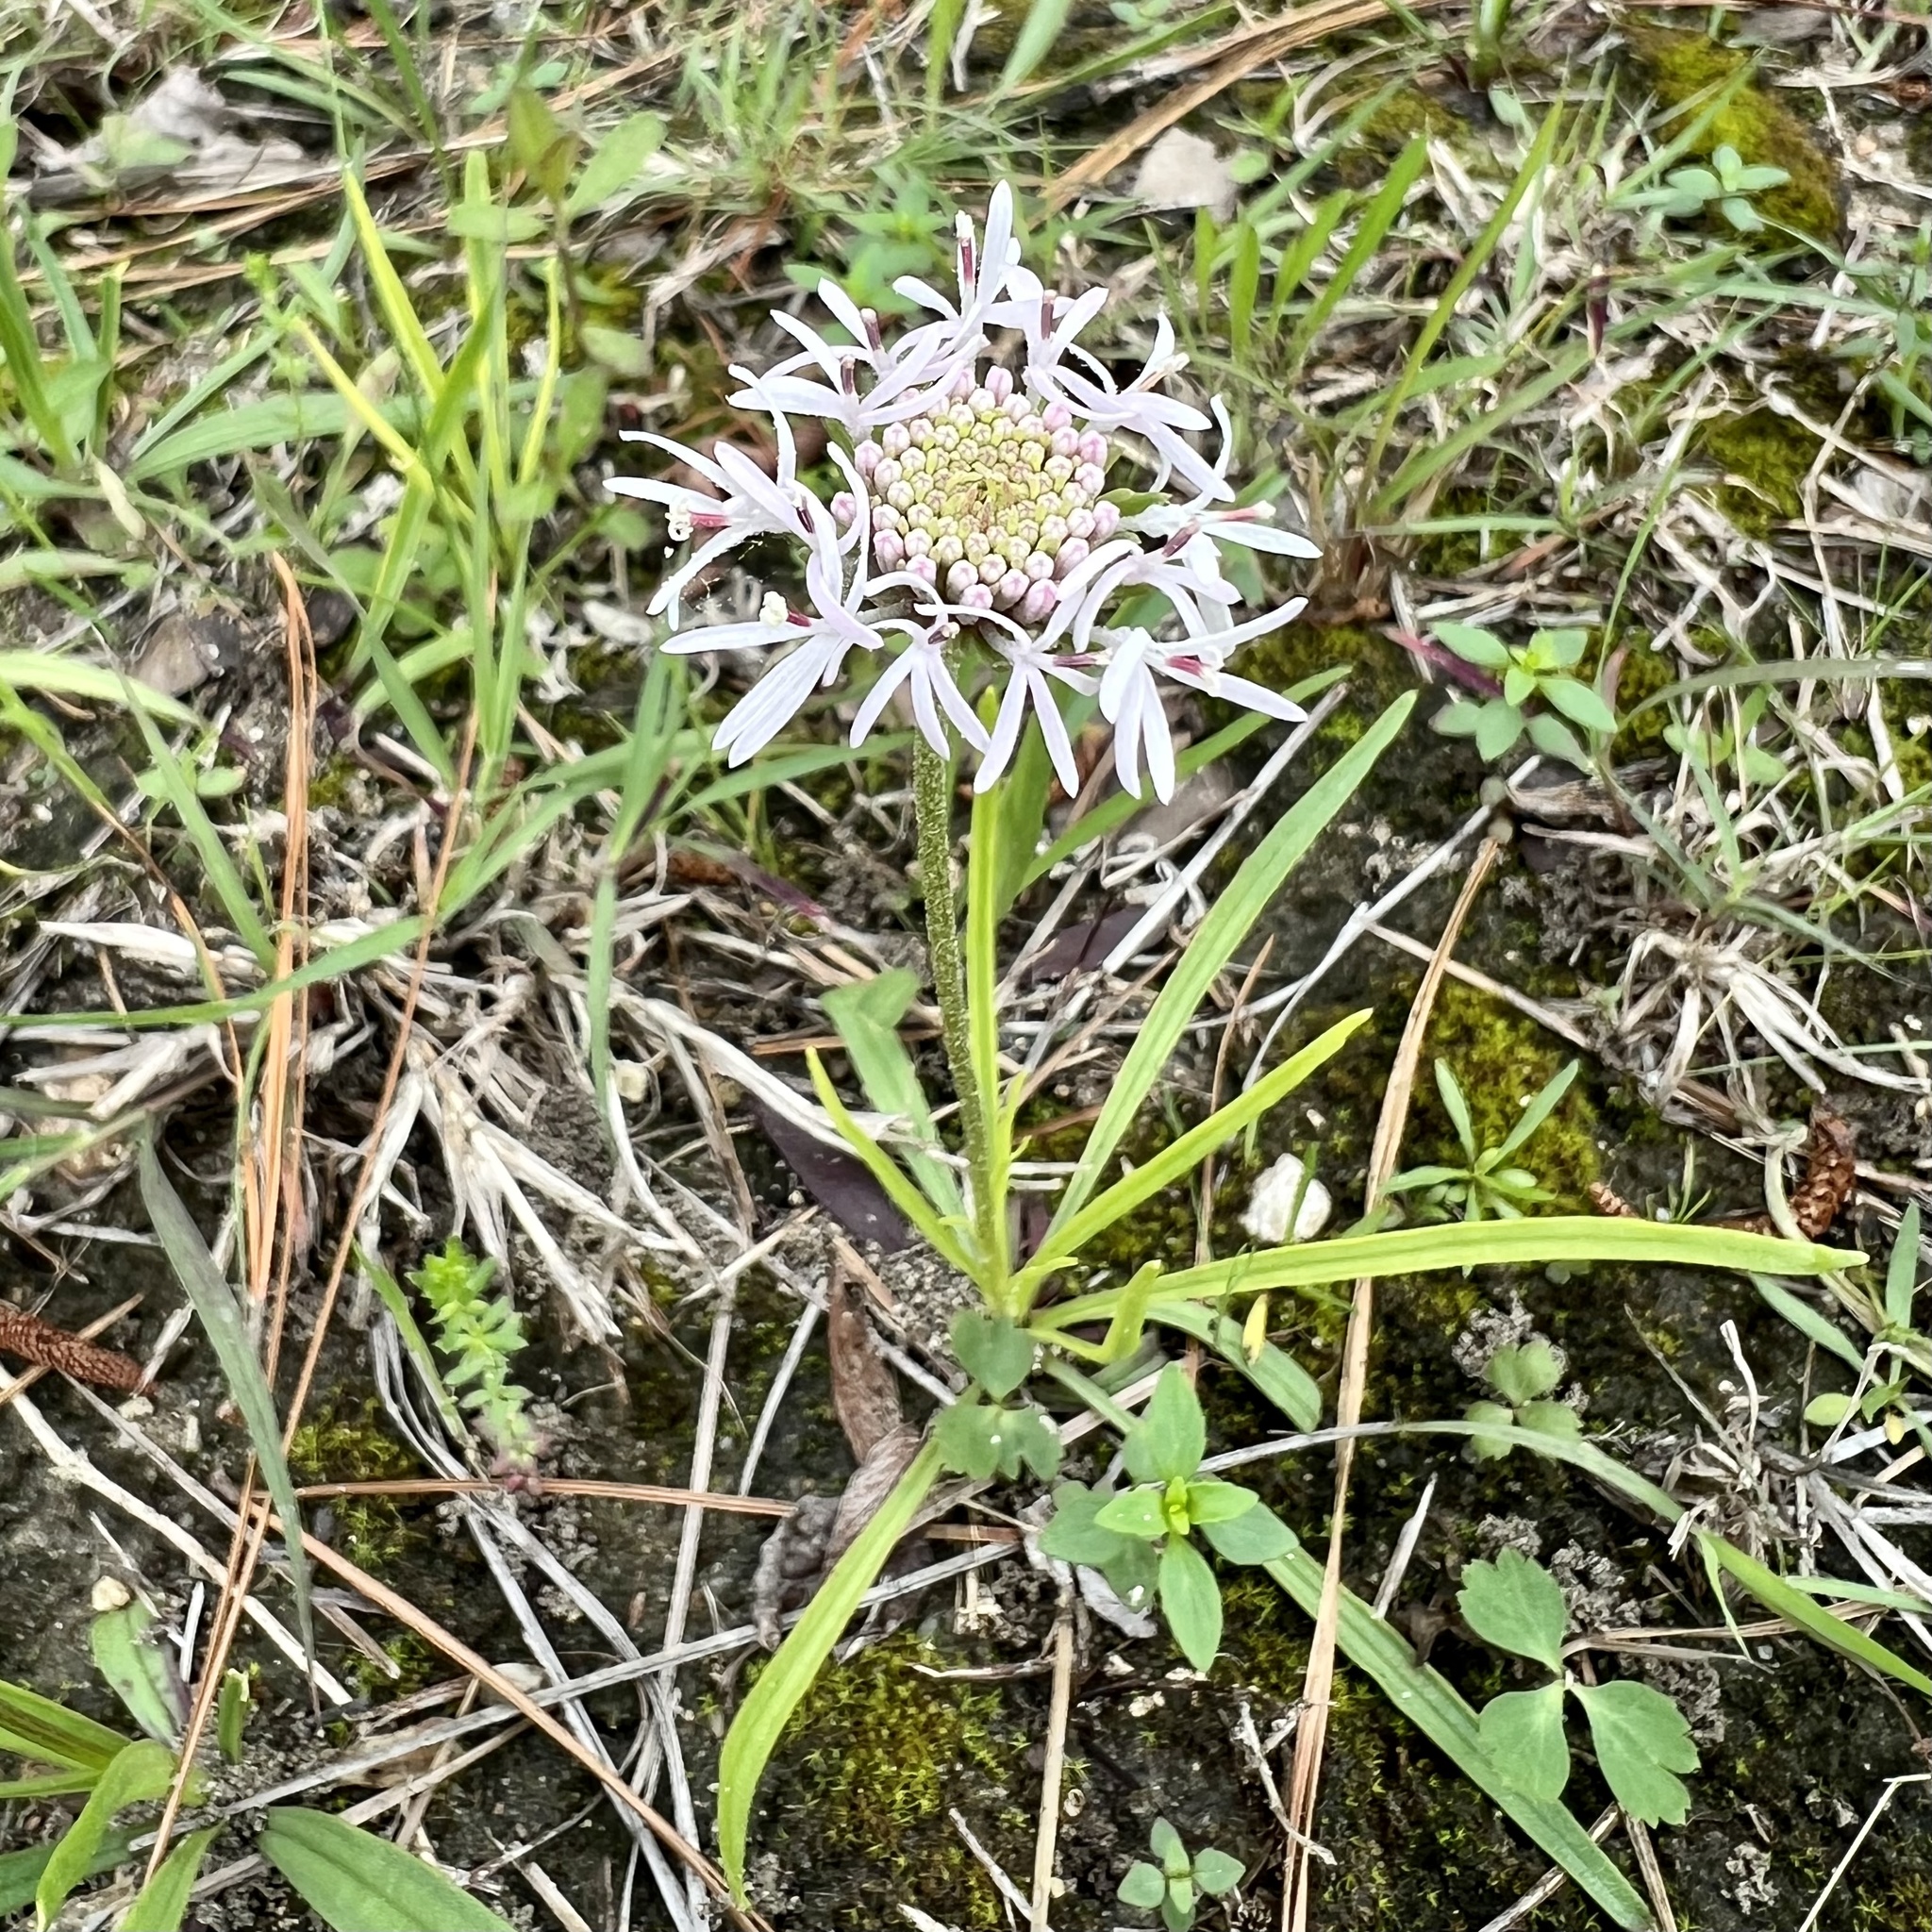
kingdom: Plantae
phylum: Tracheophyta
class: Magnoliopsida
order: Asterales
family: Asteraceae
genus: Marshallia
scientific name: Marshallia caespitosa
